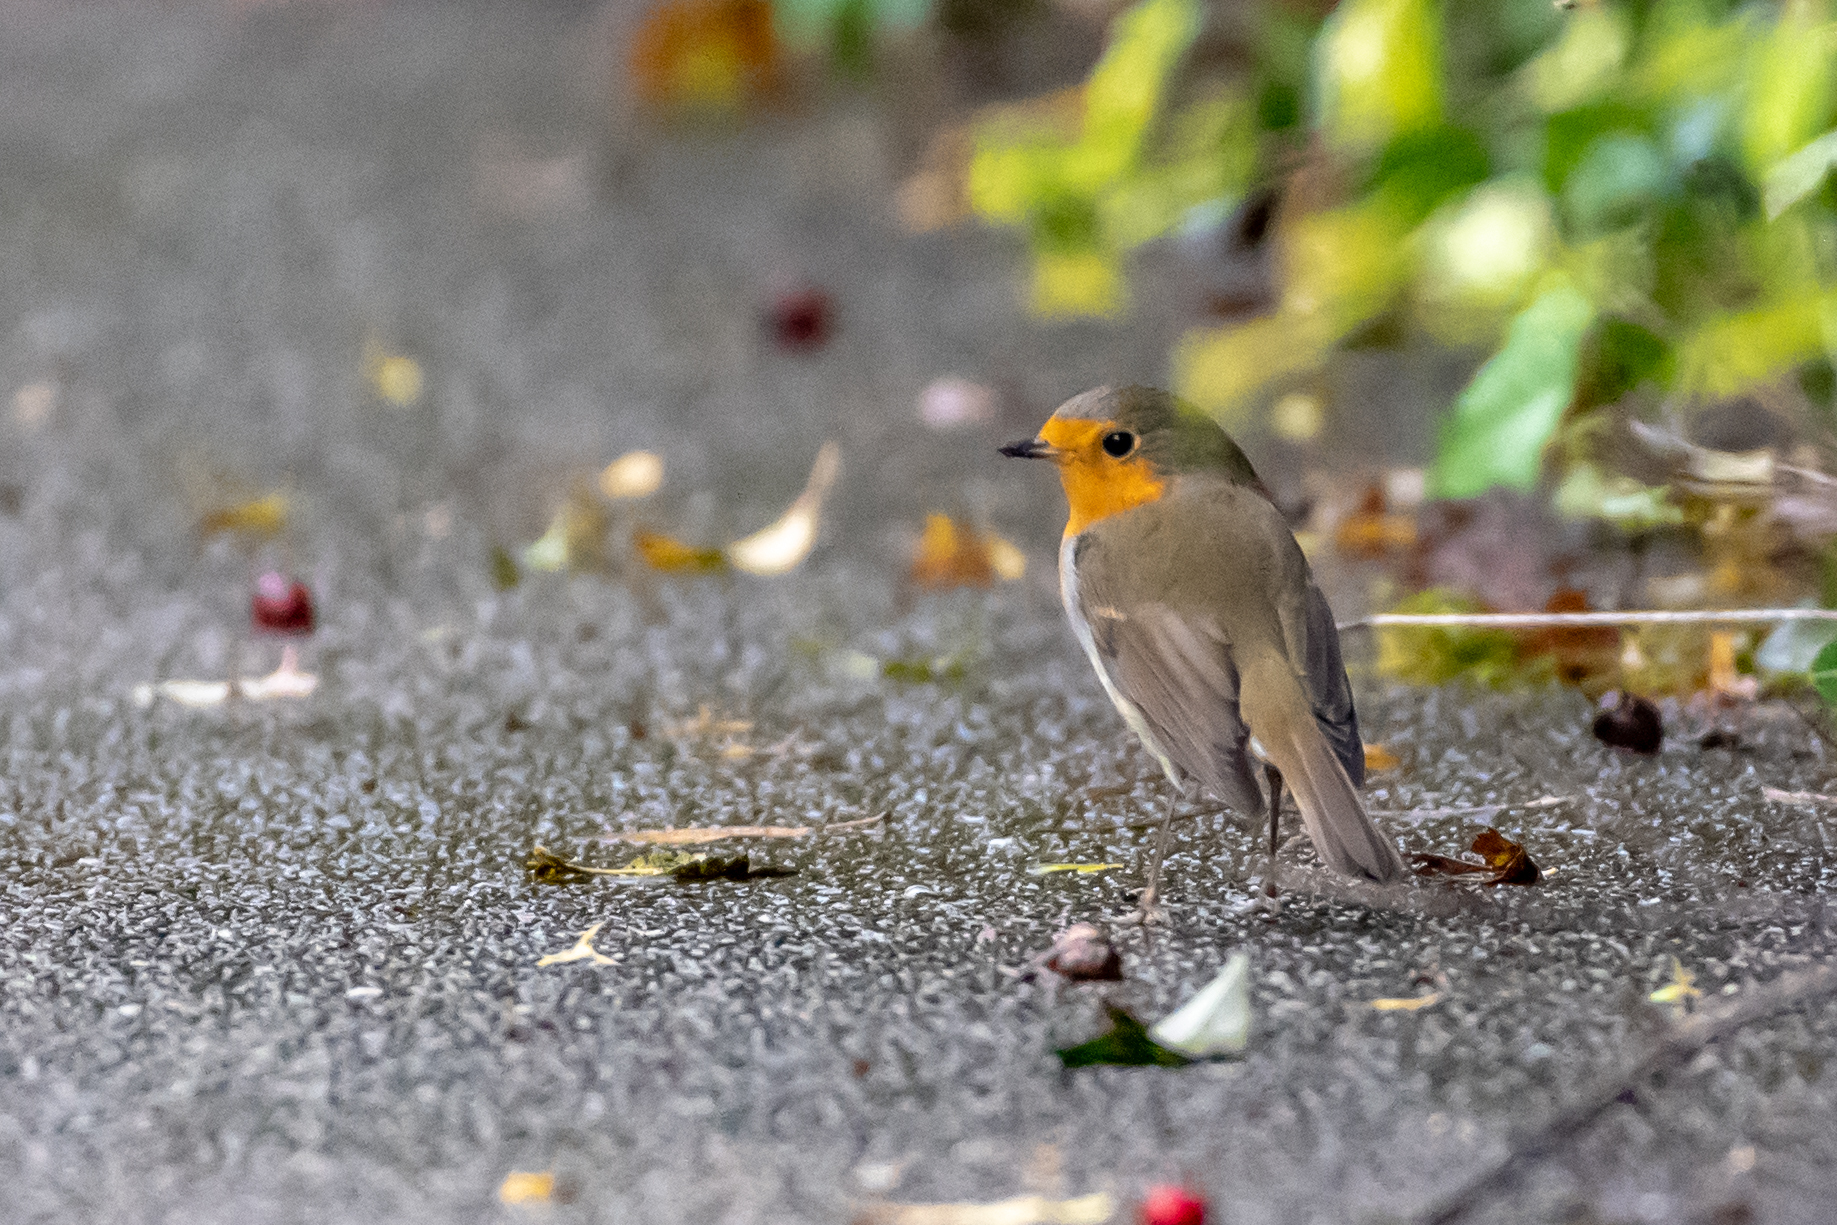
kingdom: Animalia
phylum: Chordata
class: Aves
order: Passeriformes
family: Muscicapidae
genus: Erithacus
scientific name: Erithacus rubecula
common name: European robin
